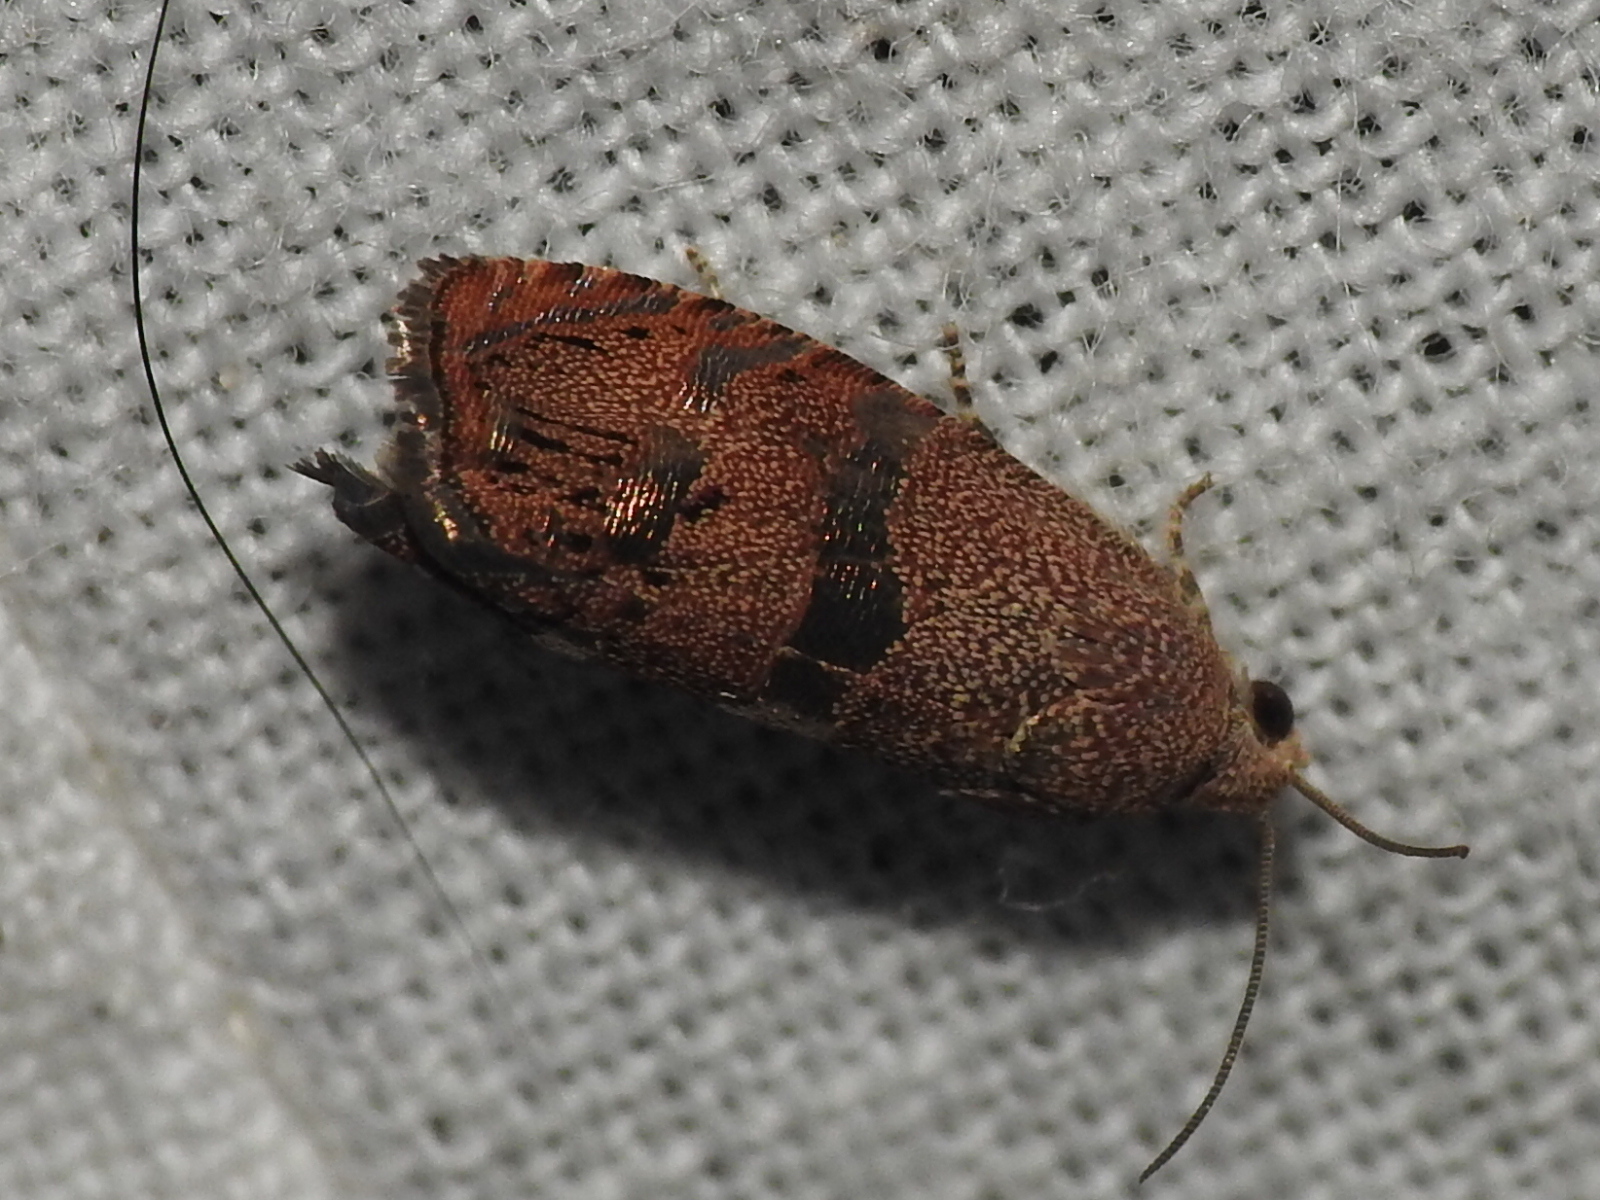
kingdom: Animalia
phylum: Arthropoda
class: Insecta
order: Lepidoptera
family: Tortricidae
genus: Cydia
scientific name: Cydia latiferreana
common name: Filbertworm moth
